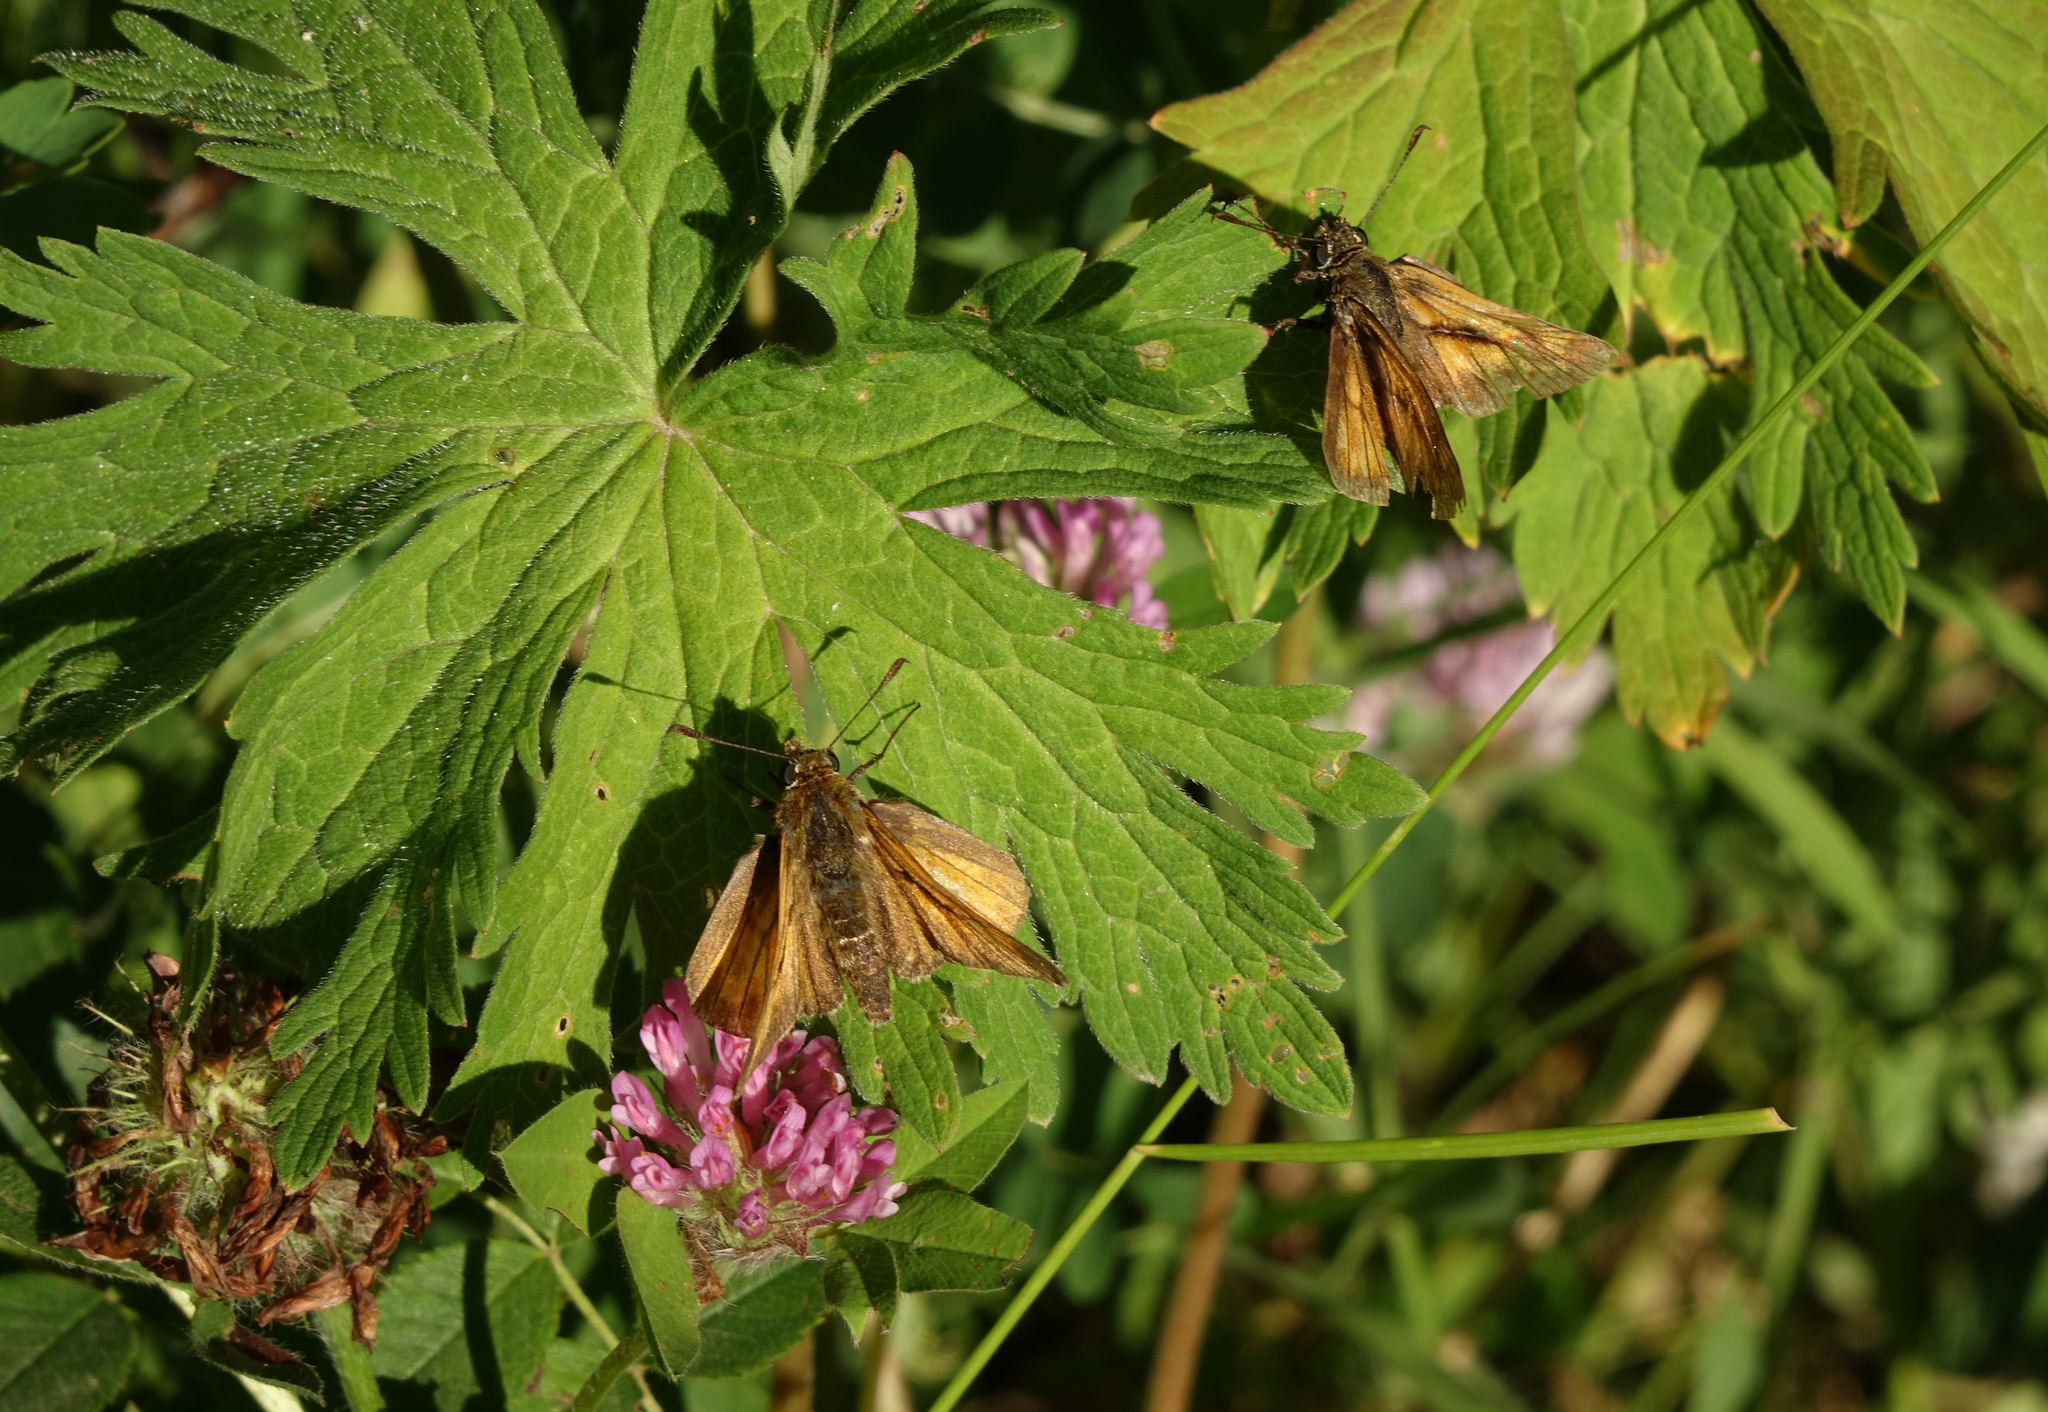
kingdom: Animalia
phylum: Arthropoda
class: Insecta
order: Lepidoptera
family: Hesperiidae
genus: Ochlodes
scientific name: Ochlodes venata
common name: Large skipper
